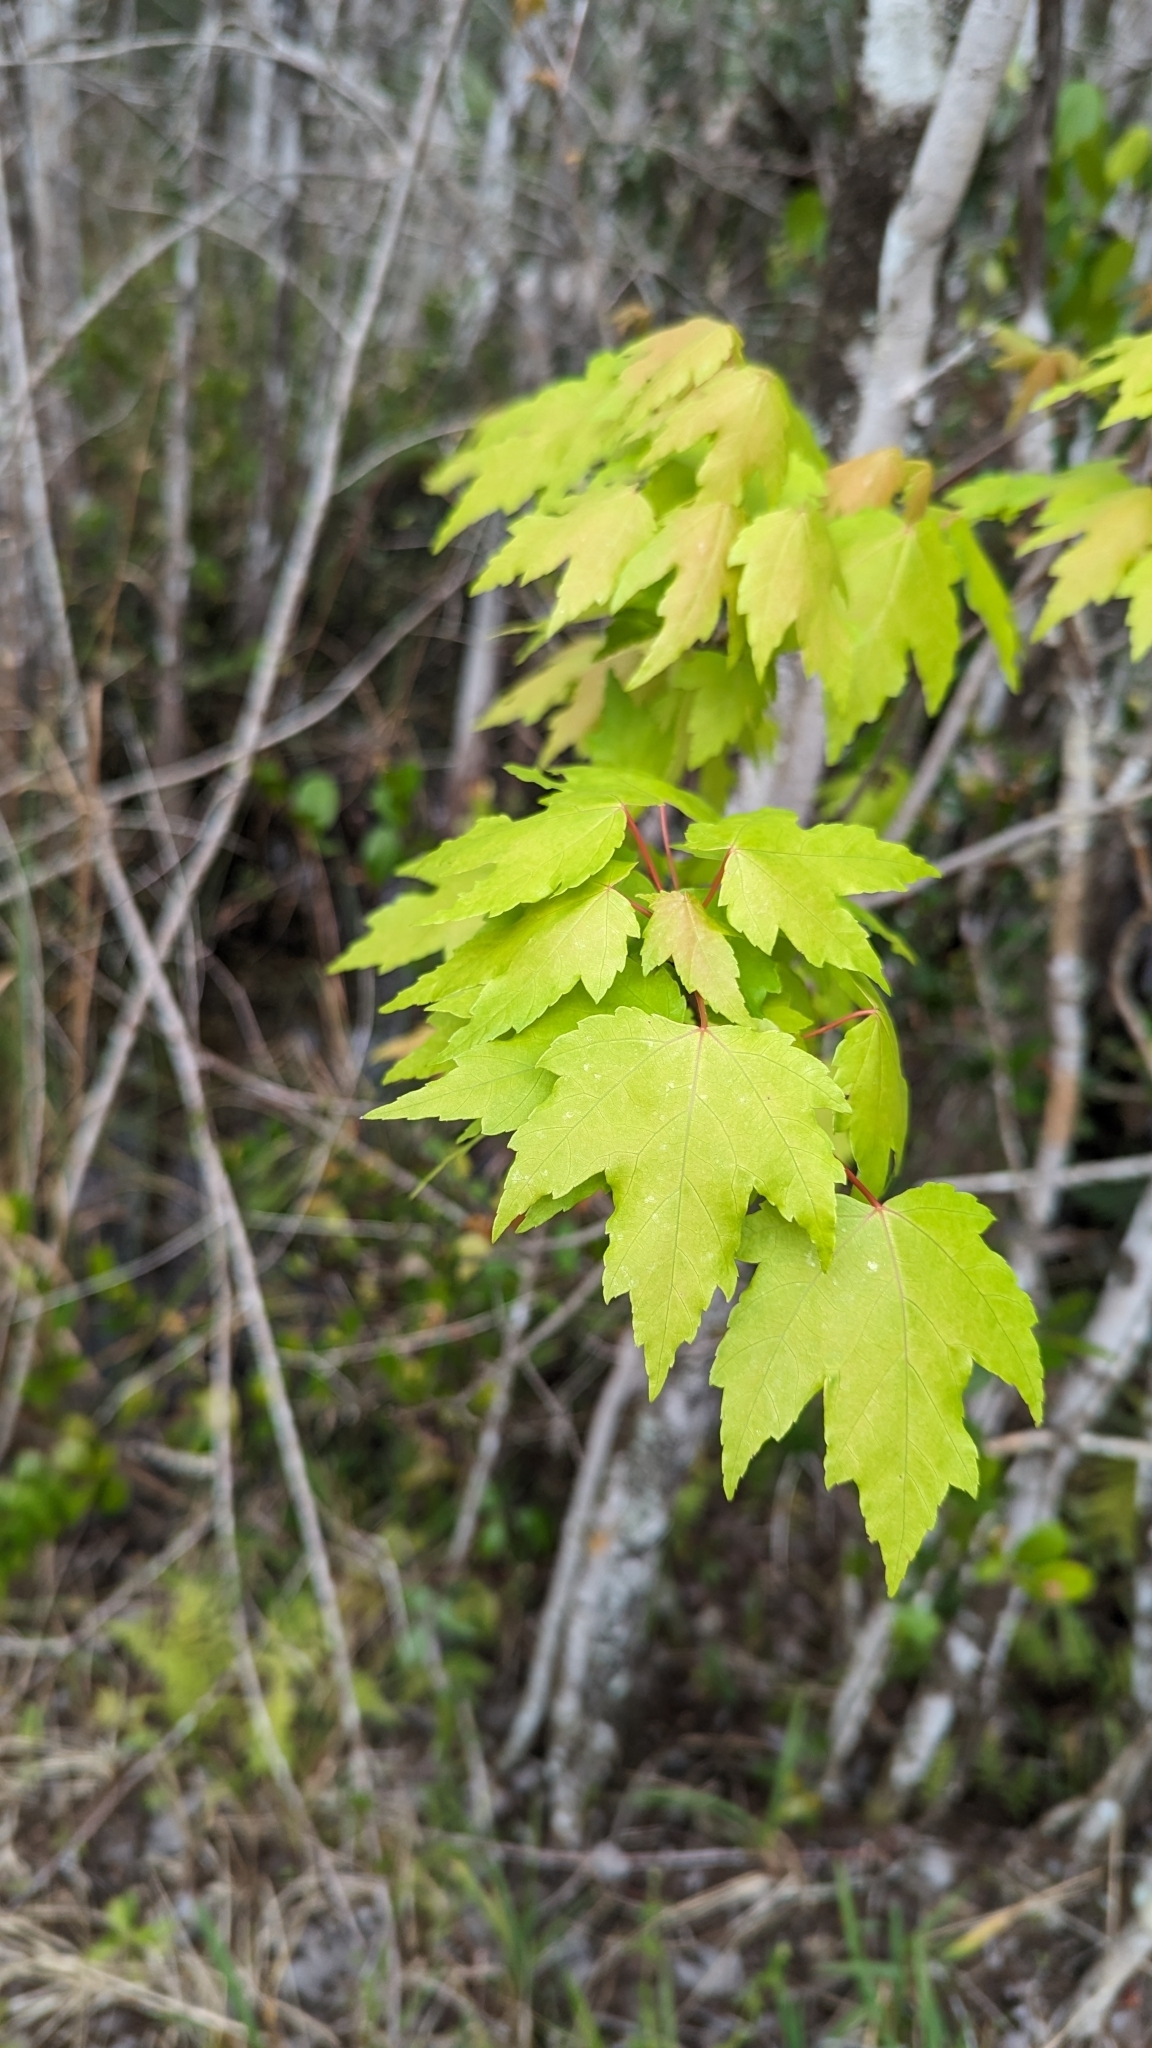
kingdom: Plantae
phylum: Tracheophyta
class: Magnoliopsida
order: Sapindales
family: Sapindaceae
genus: Acer
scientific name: Acer rubrum
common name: Red maple
